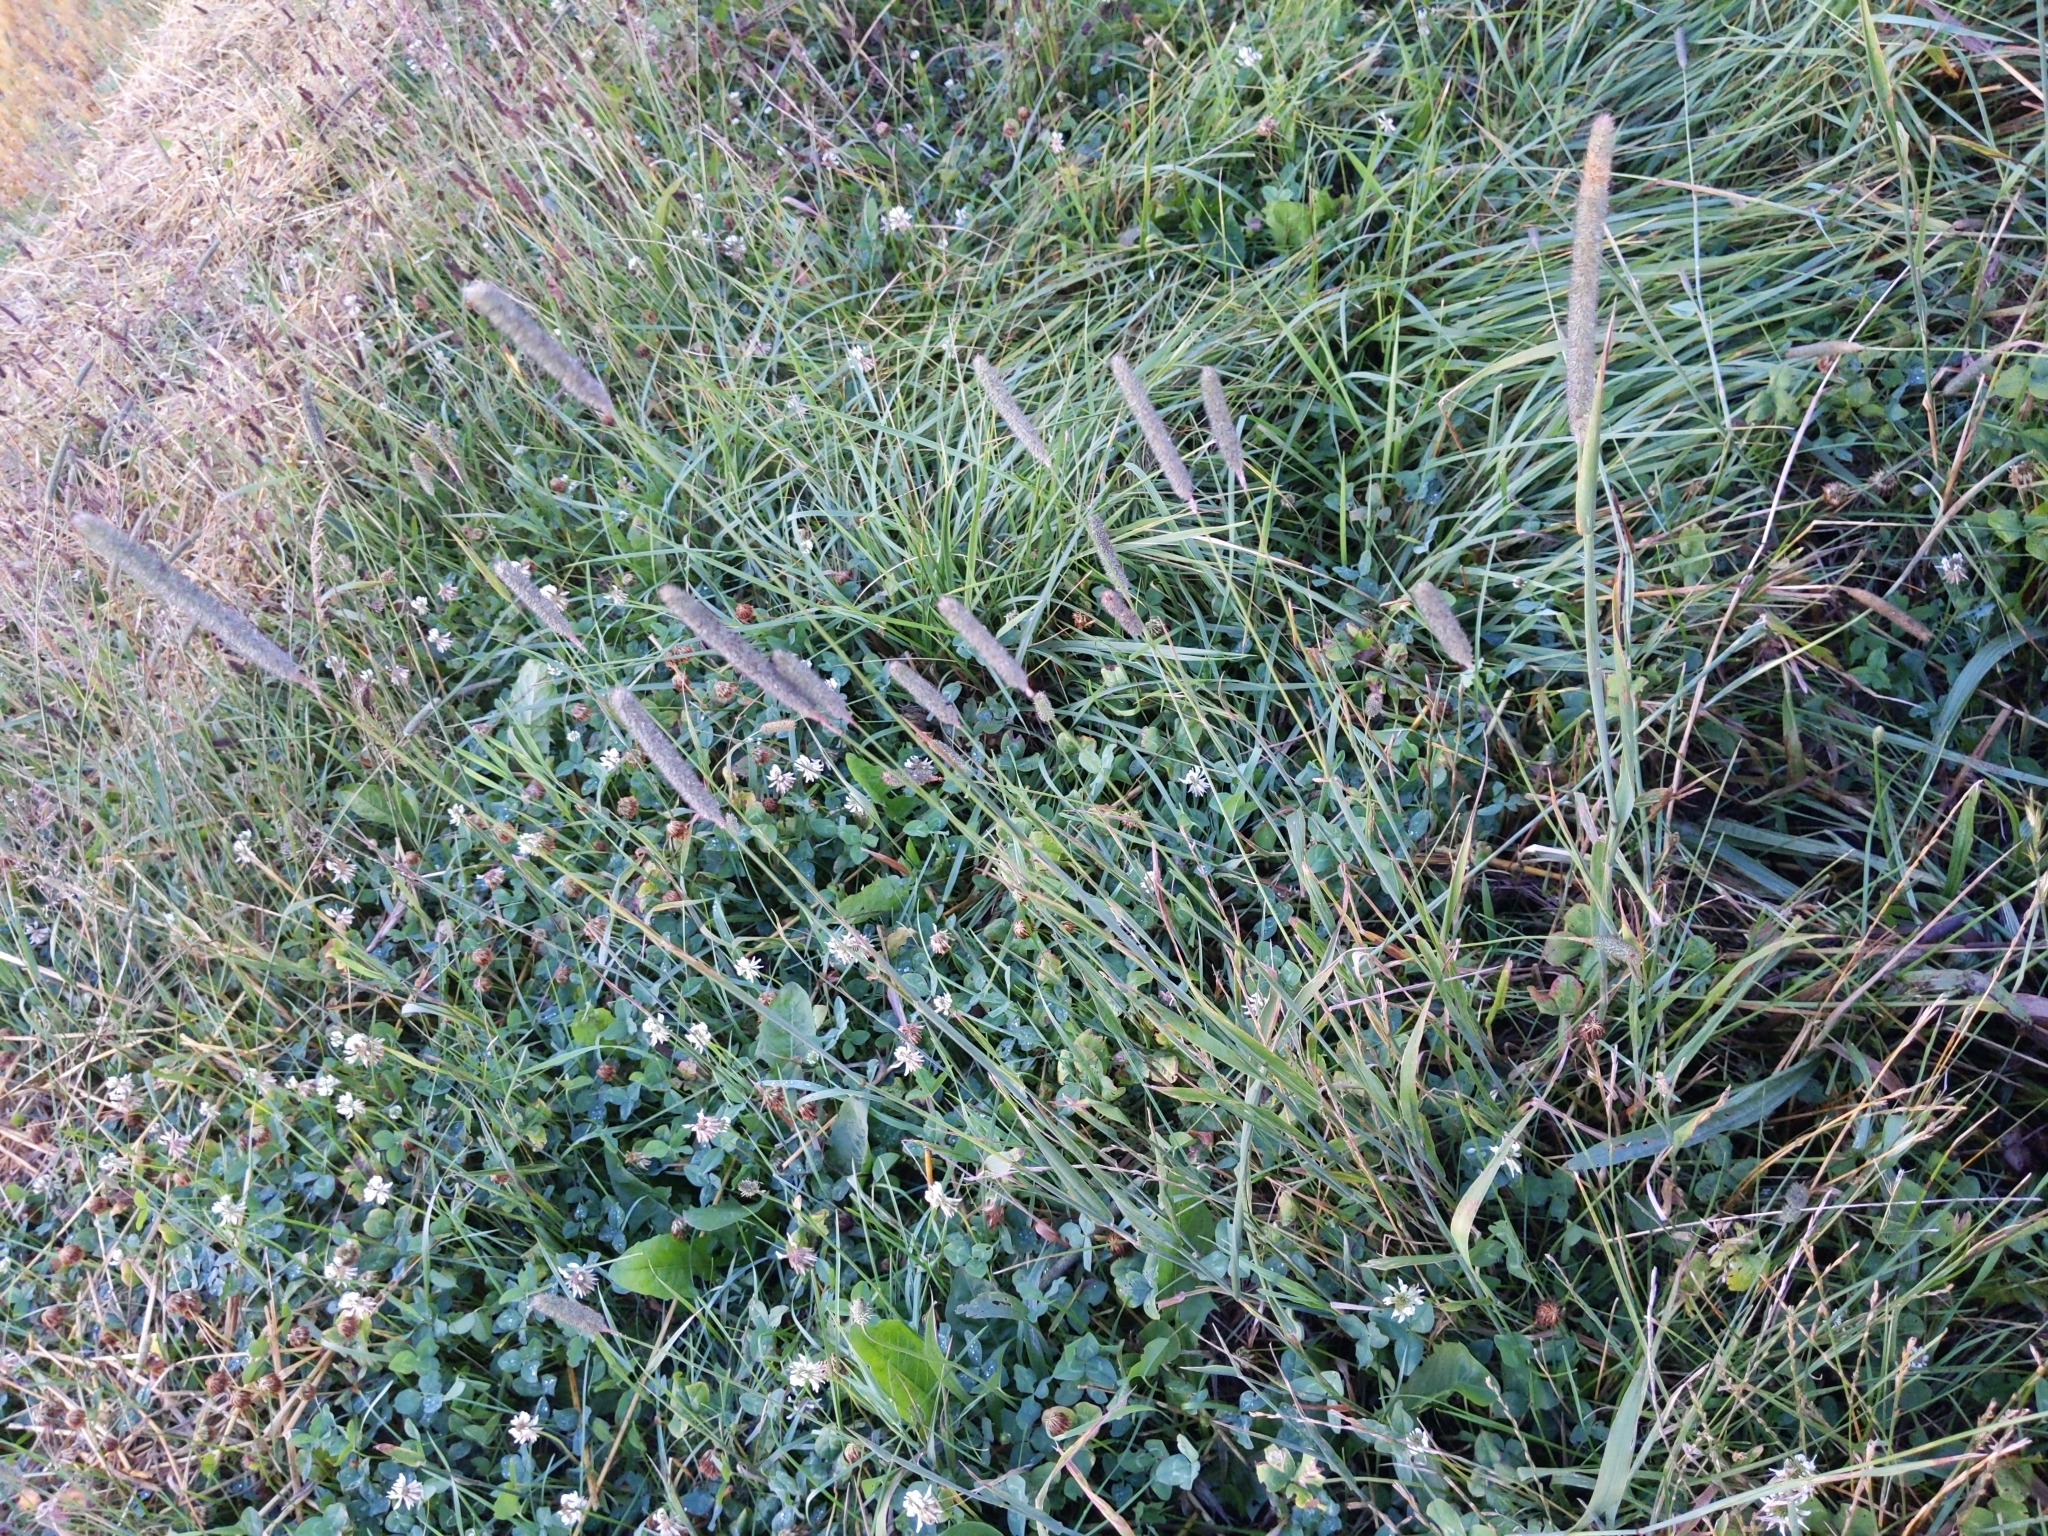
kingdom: Plantae
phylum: Tracheophyta
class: Liliopsida
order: Poales
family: Poaceae
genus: Phleum
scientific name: Phleum pratense
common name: Timothy grass
